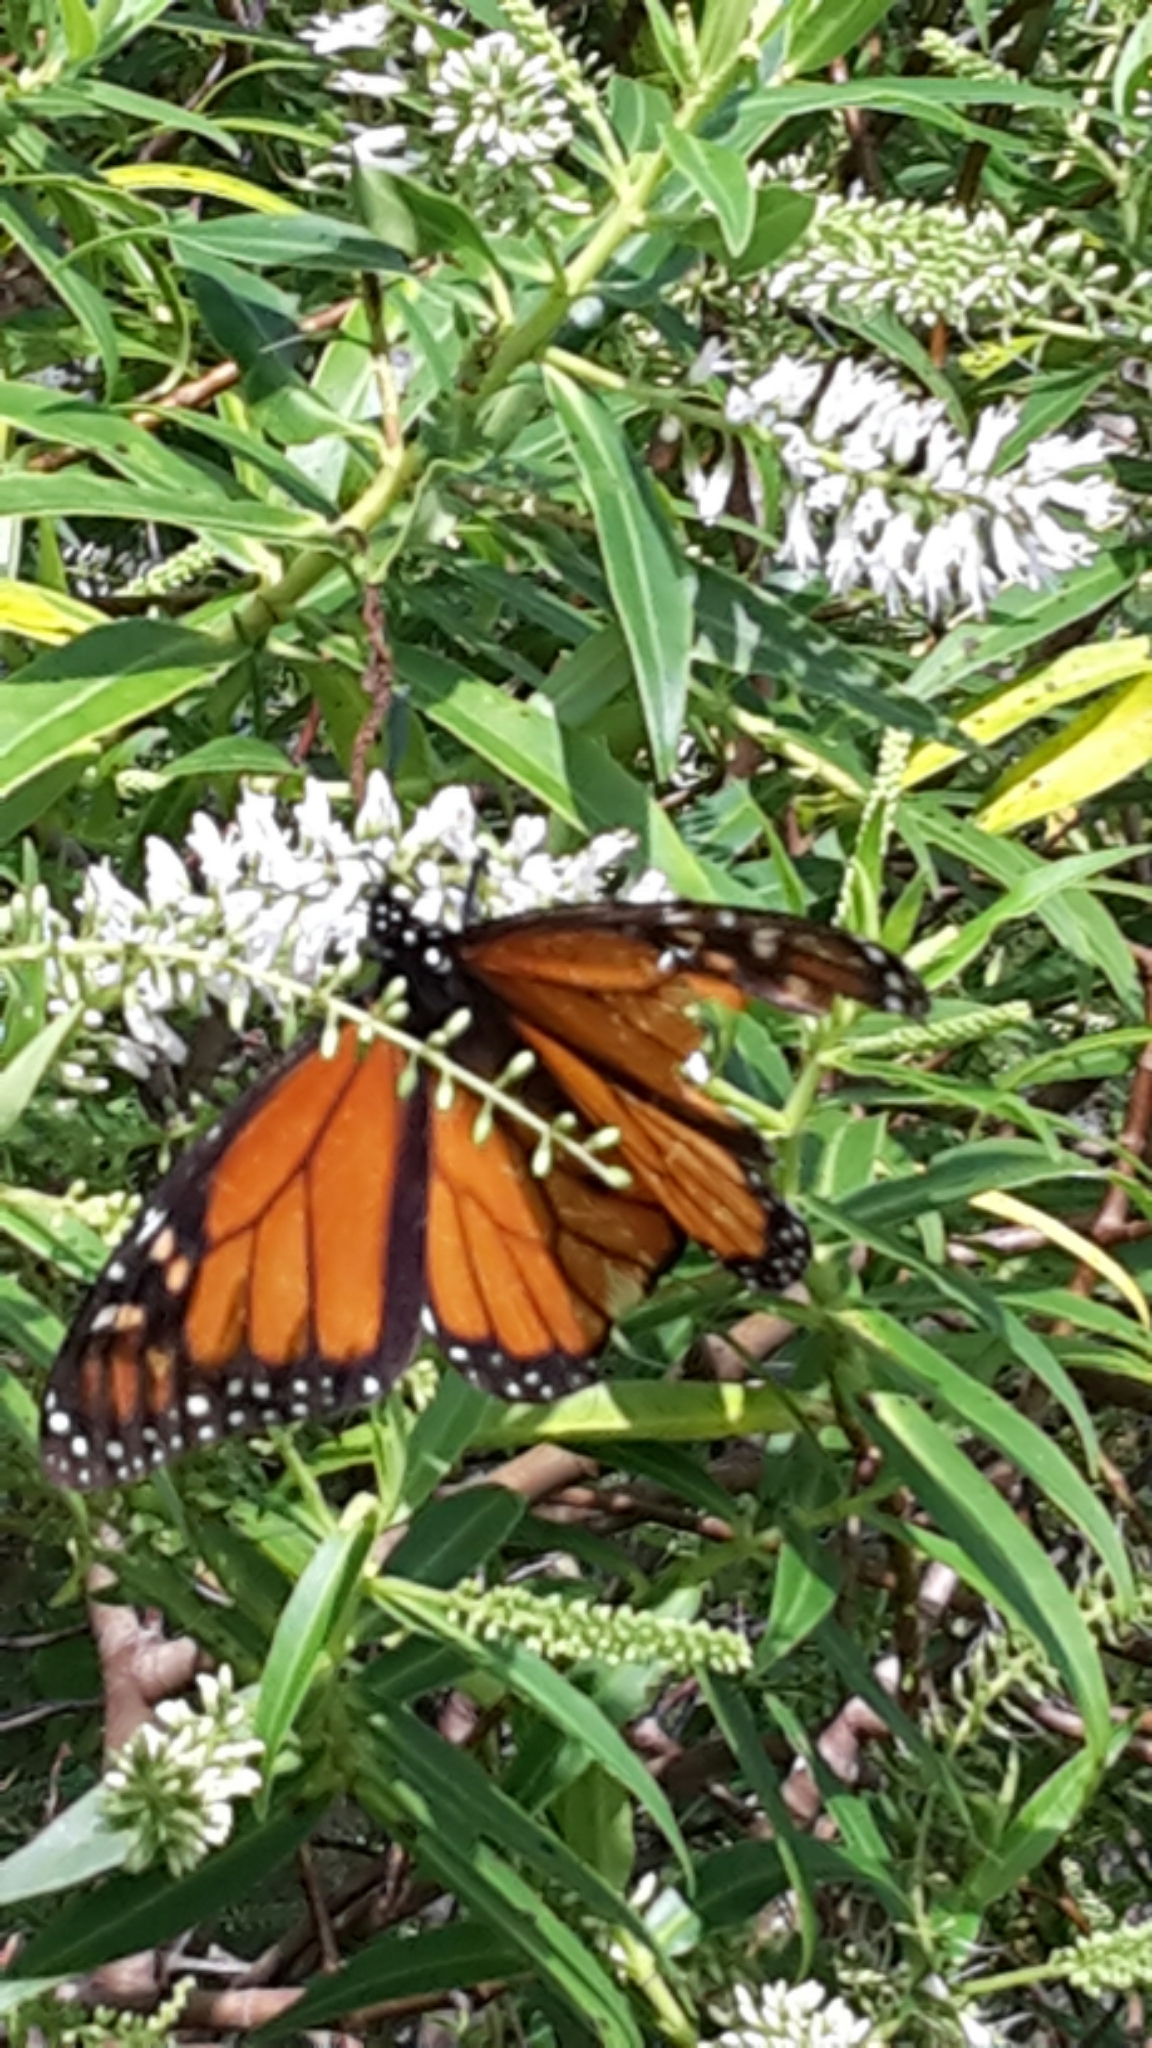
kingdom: Animalia
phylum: Arthropoda
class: Insecta
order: Lepidoptera
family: Nymphalidae
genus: Danaus
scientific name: Danaus plexippus
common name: Monarch
